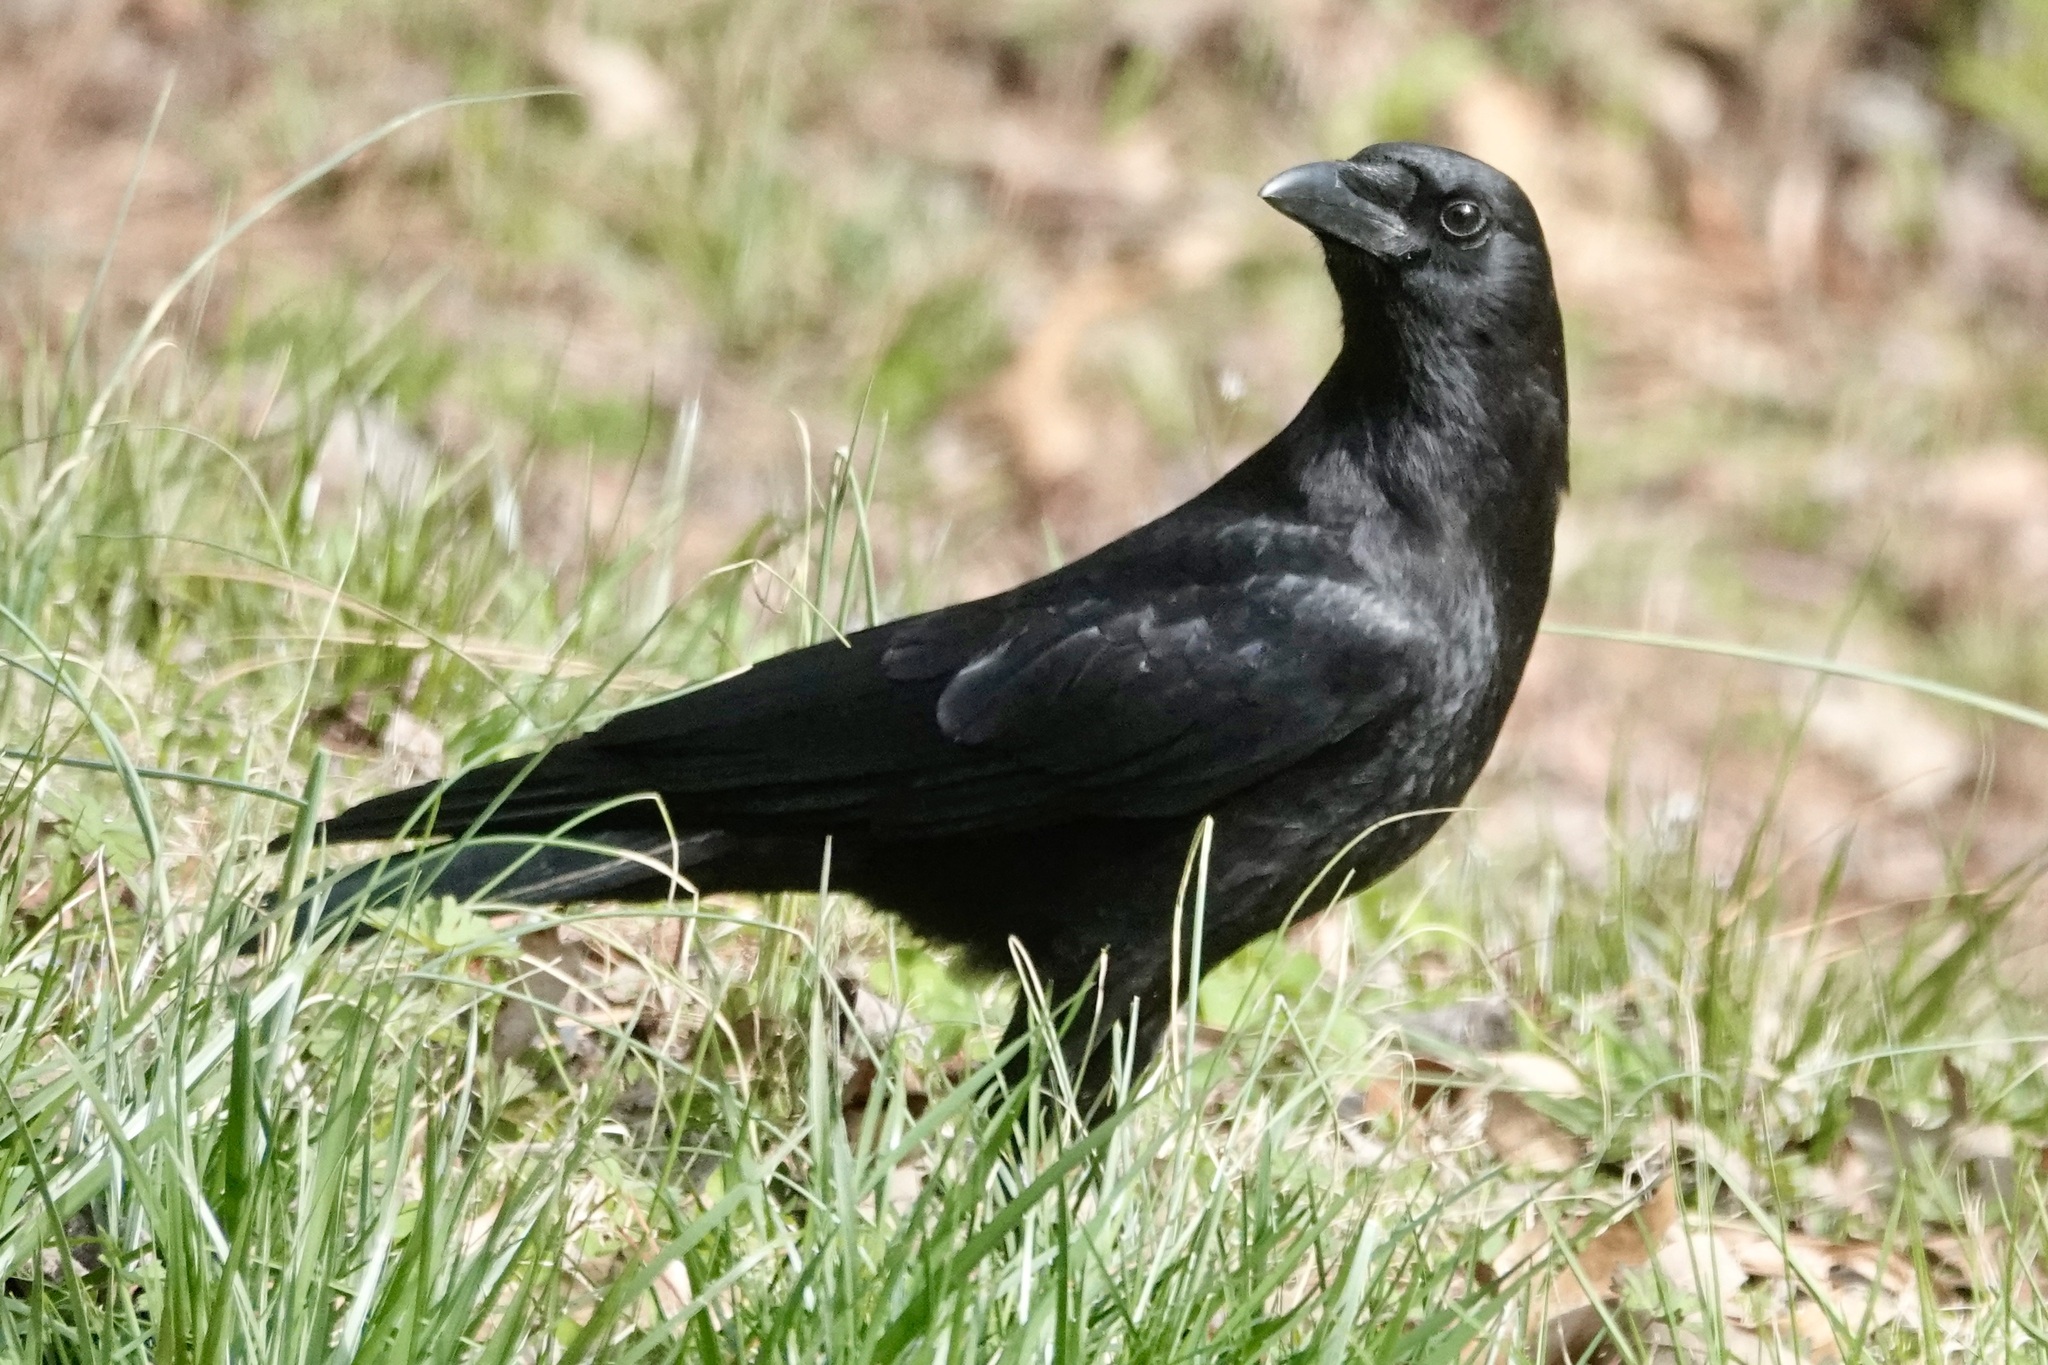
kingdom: Animalia
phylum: Chordata
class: Aves
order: Passeriformes
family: Corvidae
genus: Corvus
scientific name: Corvus brachyrhynchos
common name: American crow
